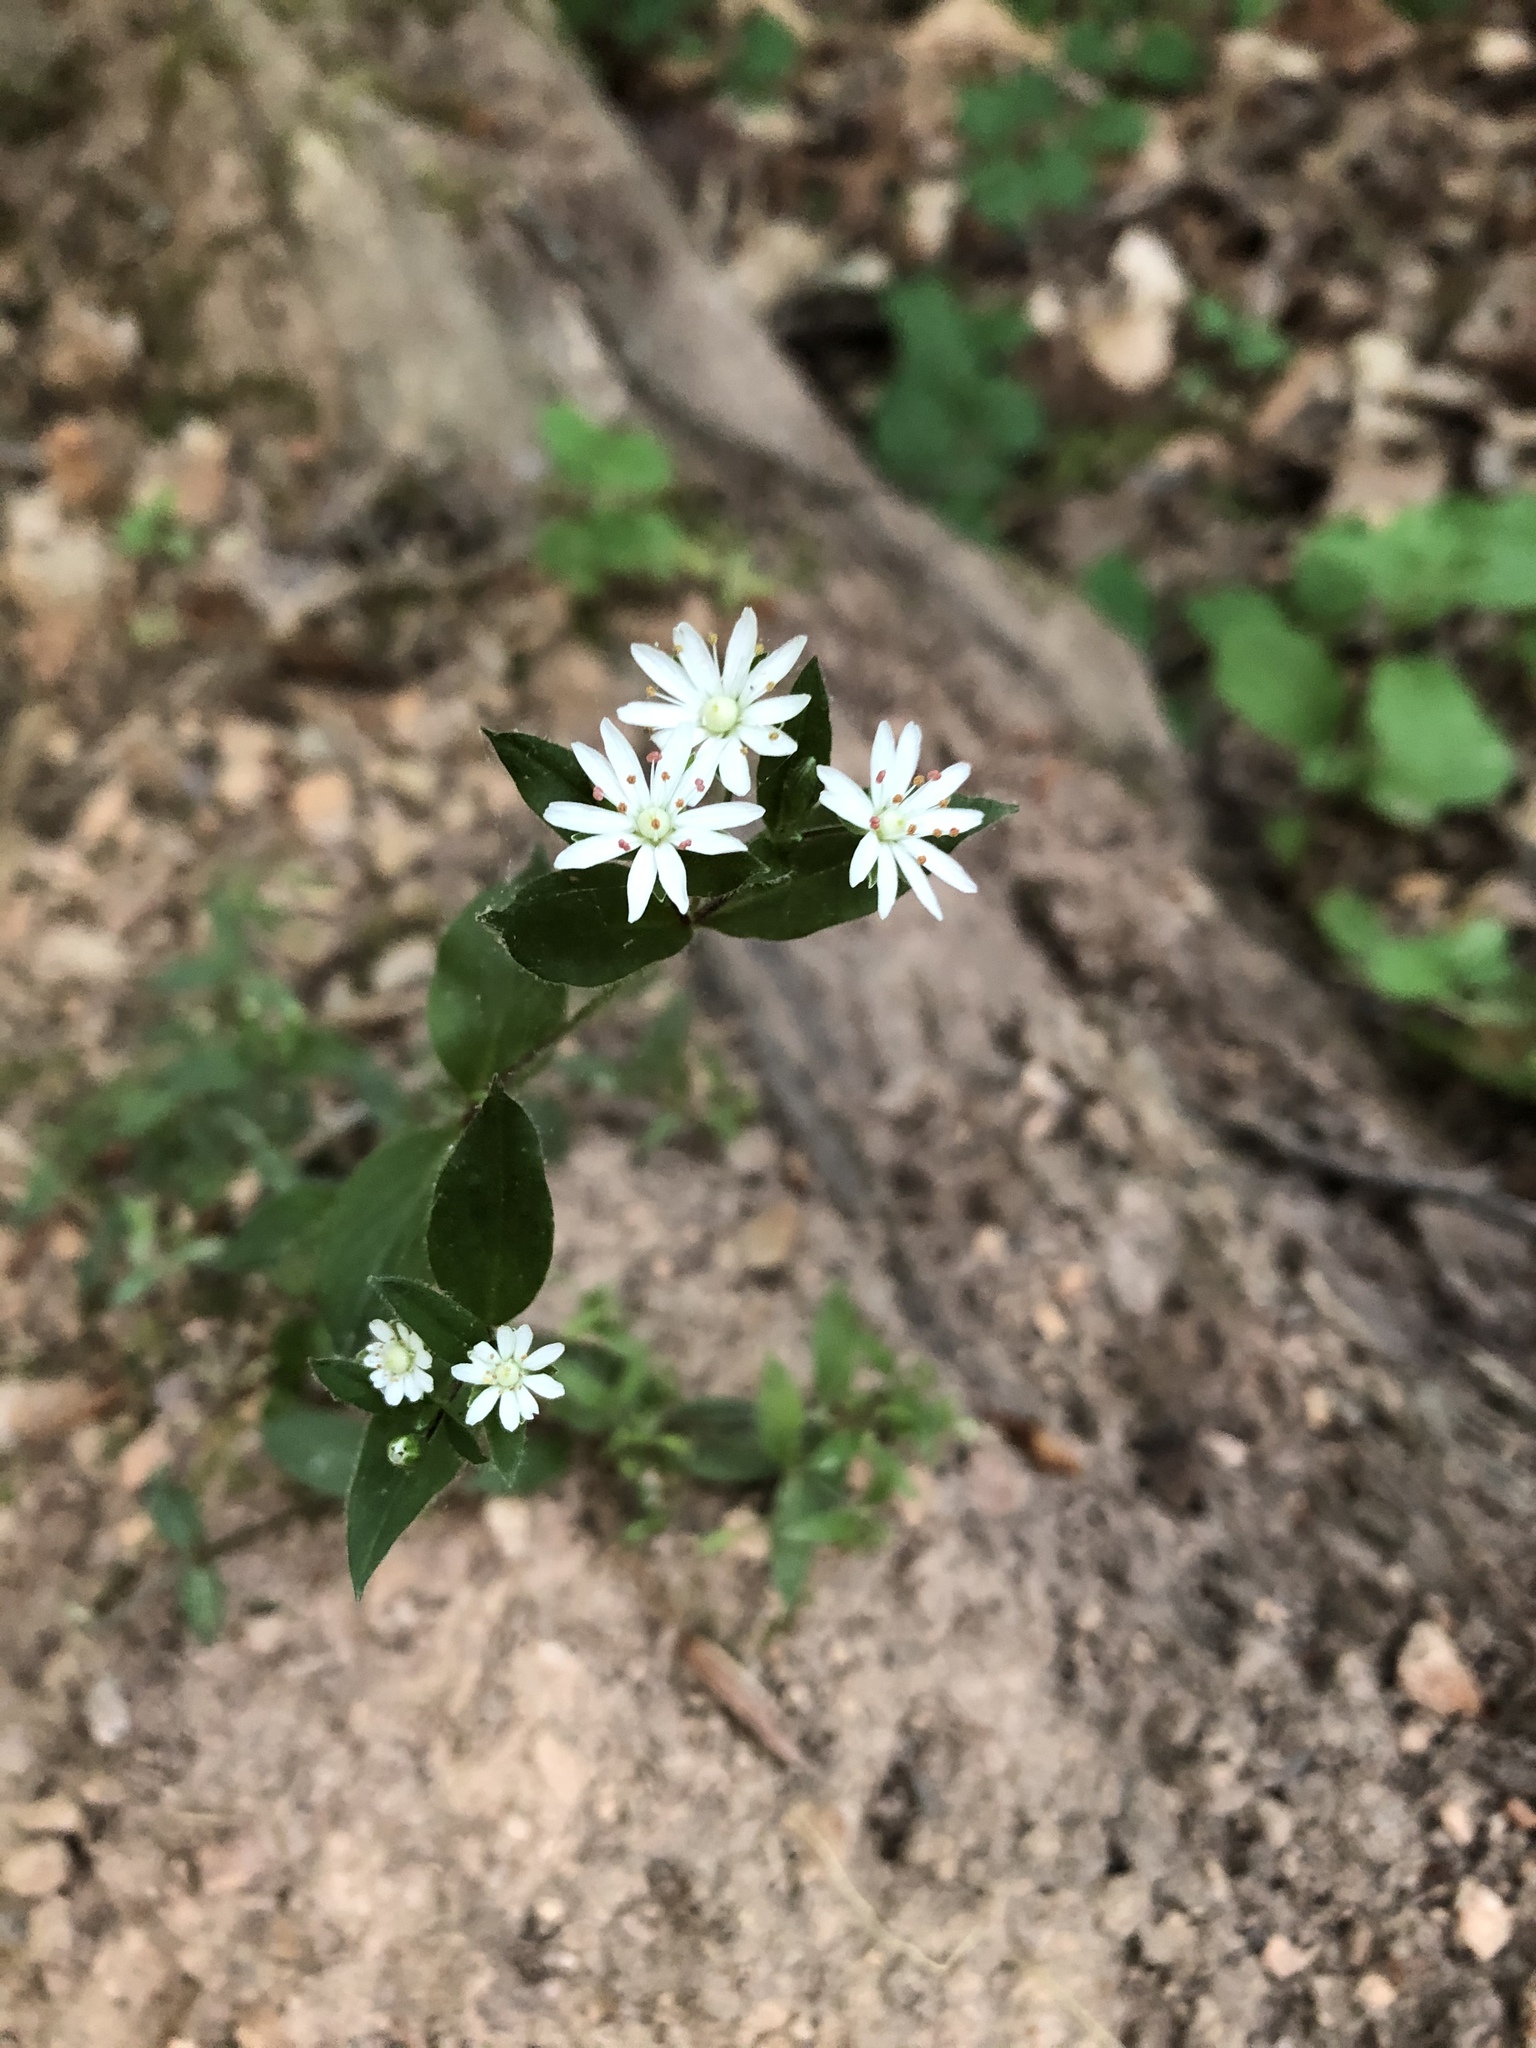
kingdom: Plantae
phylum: Tracheophyta
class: Magnoliopsida
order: Caryophyllales
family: Caryophyllaceae
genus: Stellaria
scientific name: Stellaria pubera
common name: Star chickweed
